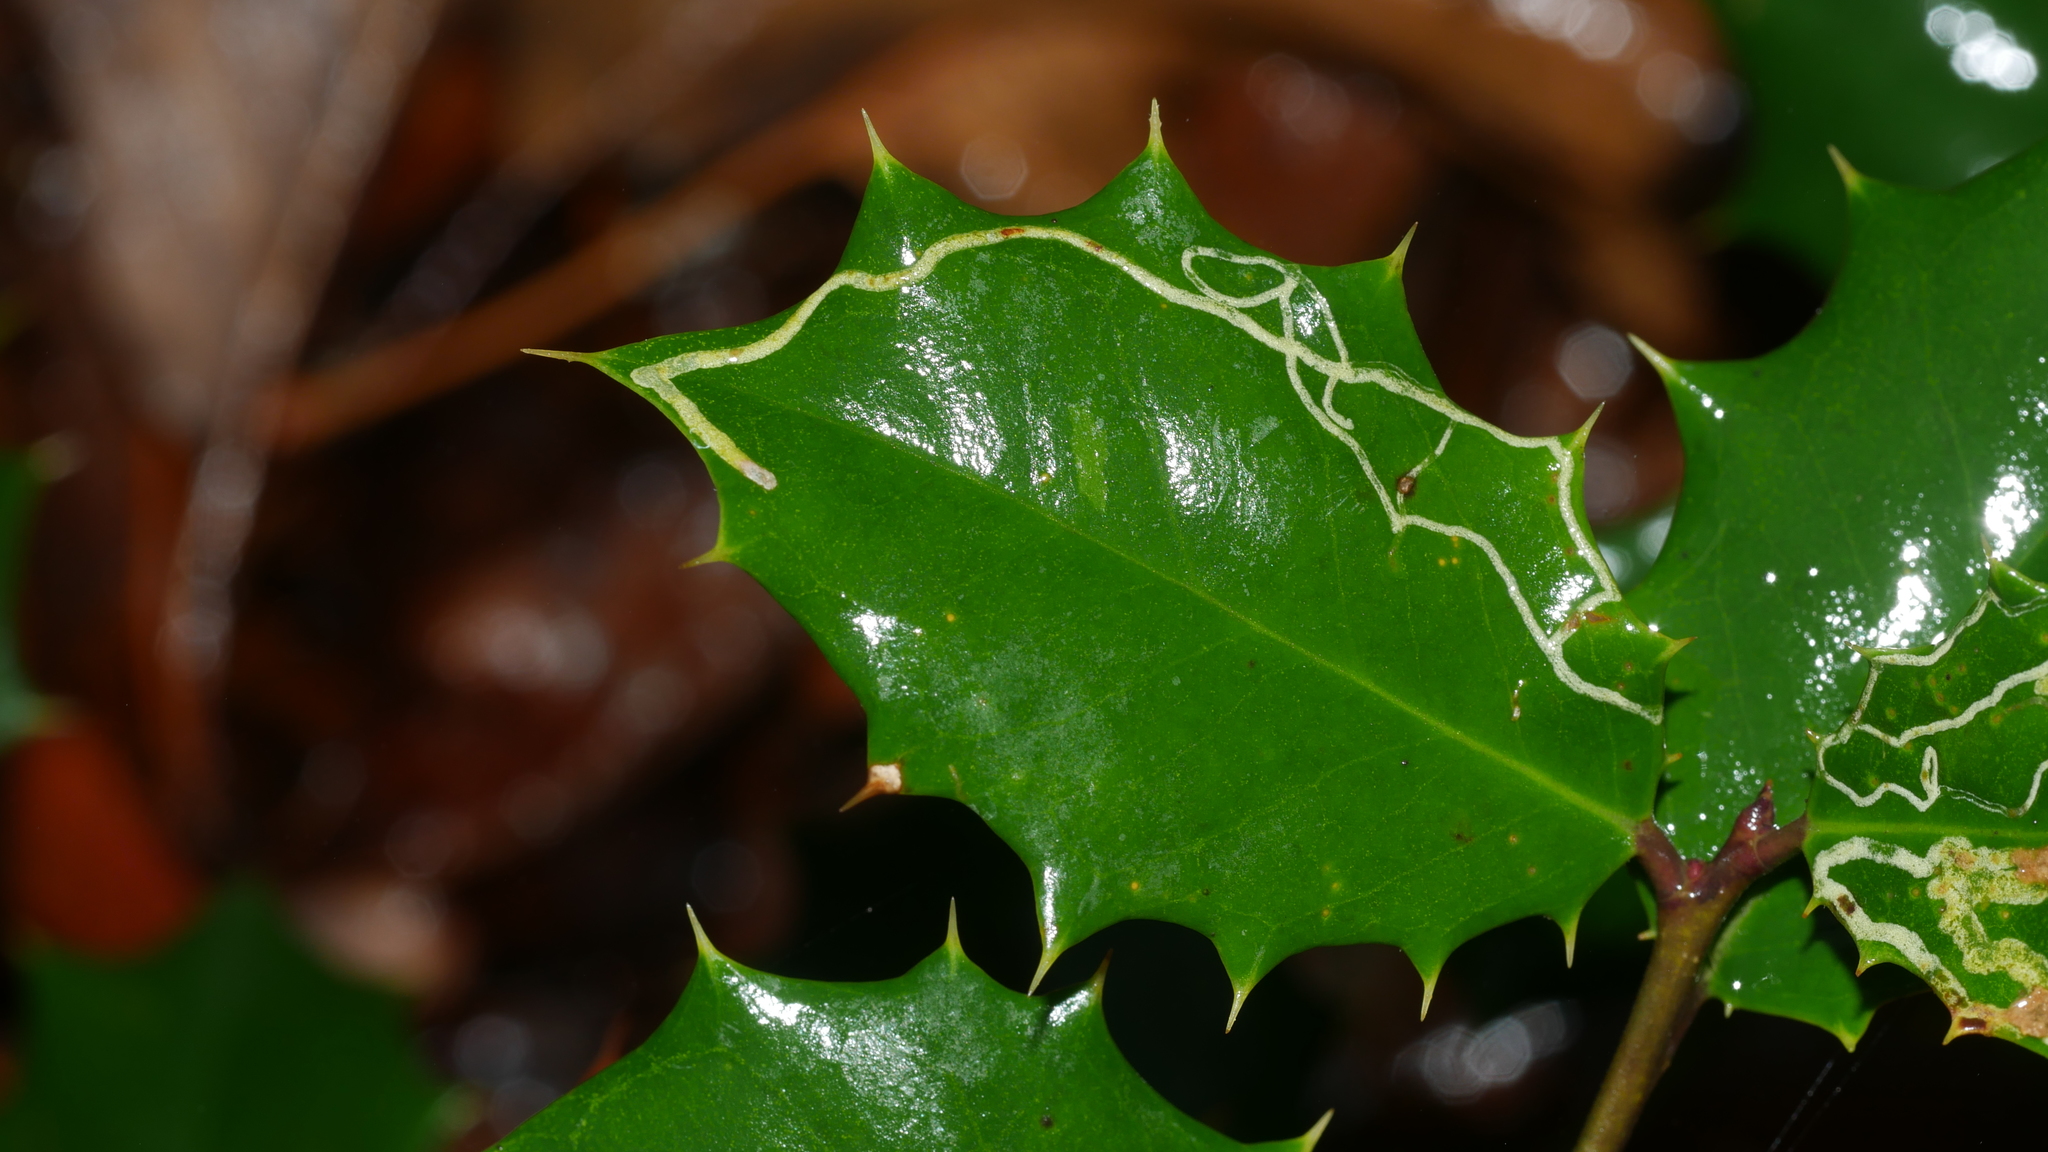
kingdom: Animalia
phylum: Arthropoda
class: Insecta
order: Diptera
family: Agromyzidae
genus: Phytomyza
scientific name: Phytomyza opacae
